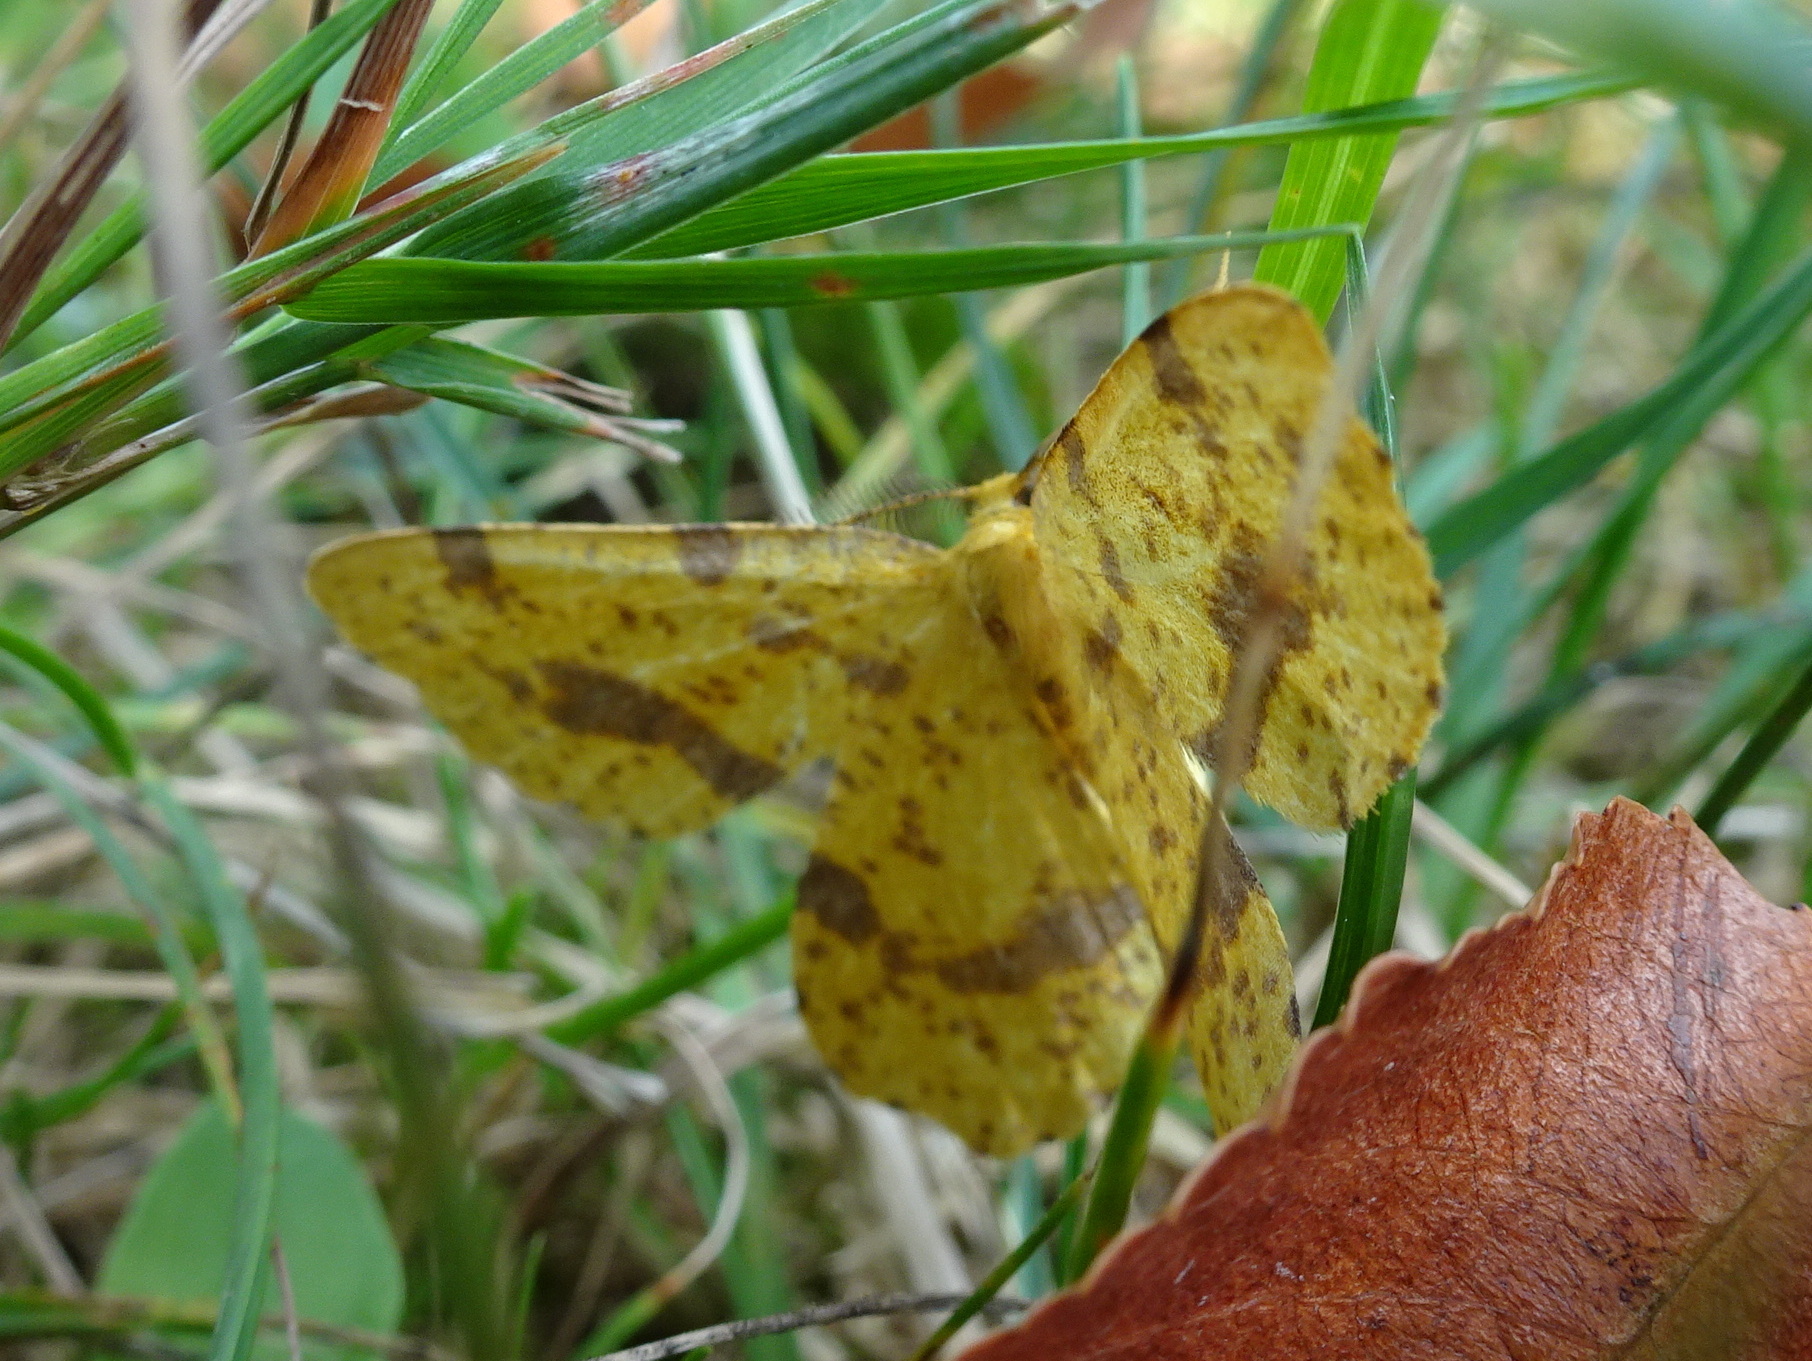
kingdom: Animalia
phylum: Arthropoda
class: Insecta
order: Lepidoptera
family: Geometridae
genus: Xanthotype
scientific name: Xanthotype
